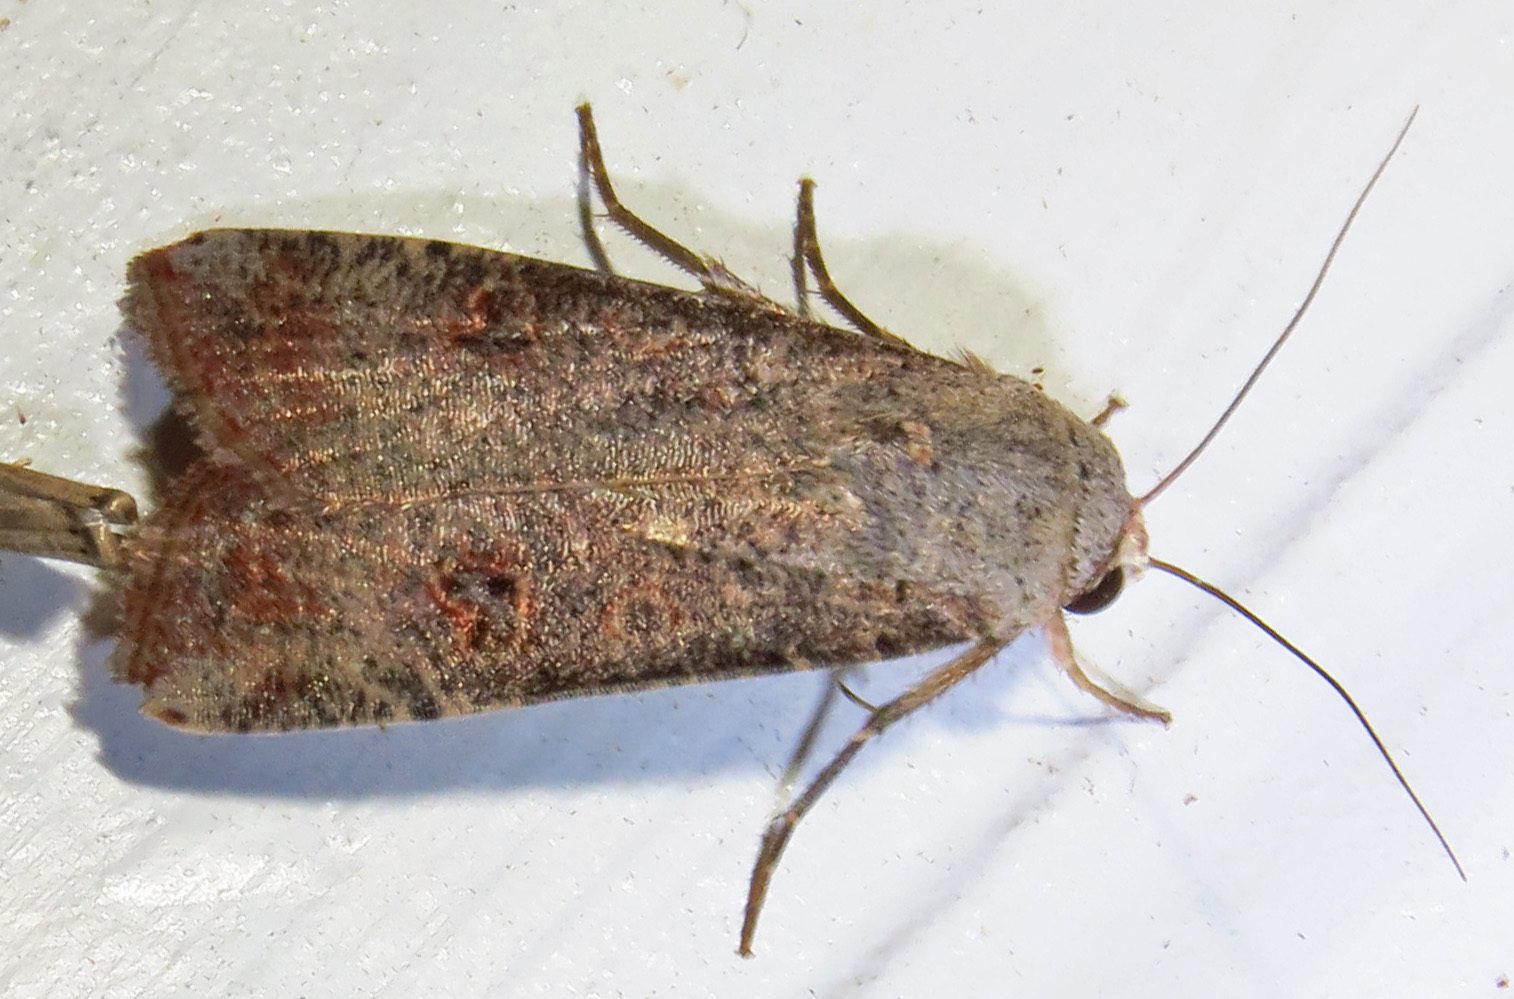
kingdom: Animalia
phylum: Arthropoda
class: Insecta
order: Lepidoptera
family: Noctuidae
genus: Anicla
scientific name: Anicla infecta
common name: Green cutworm
